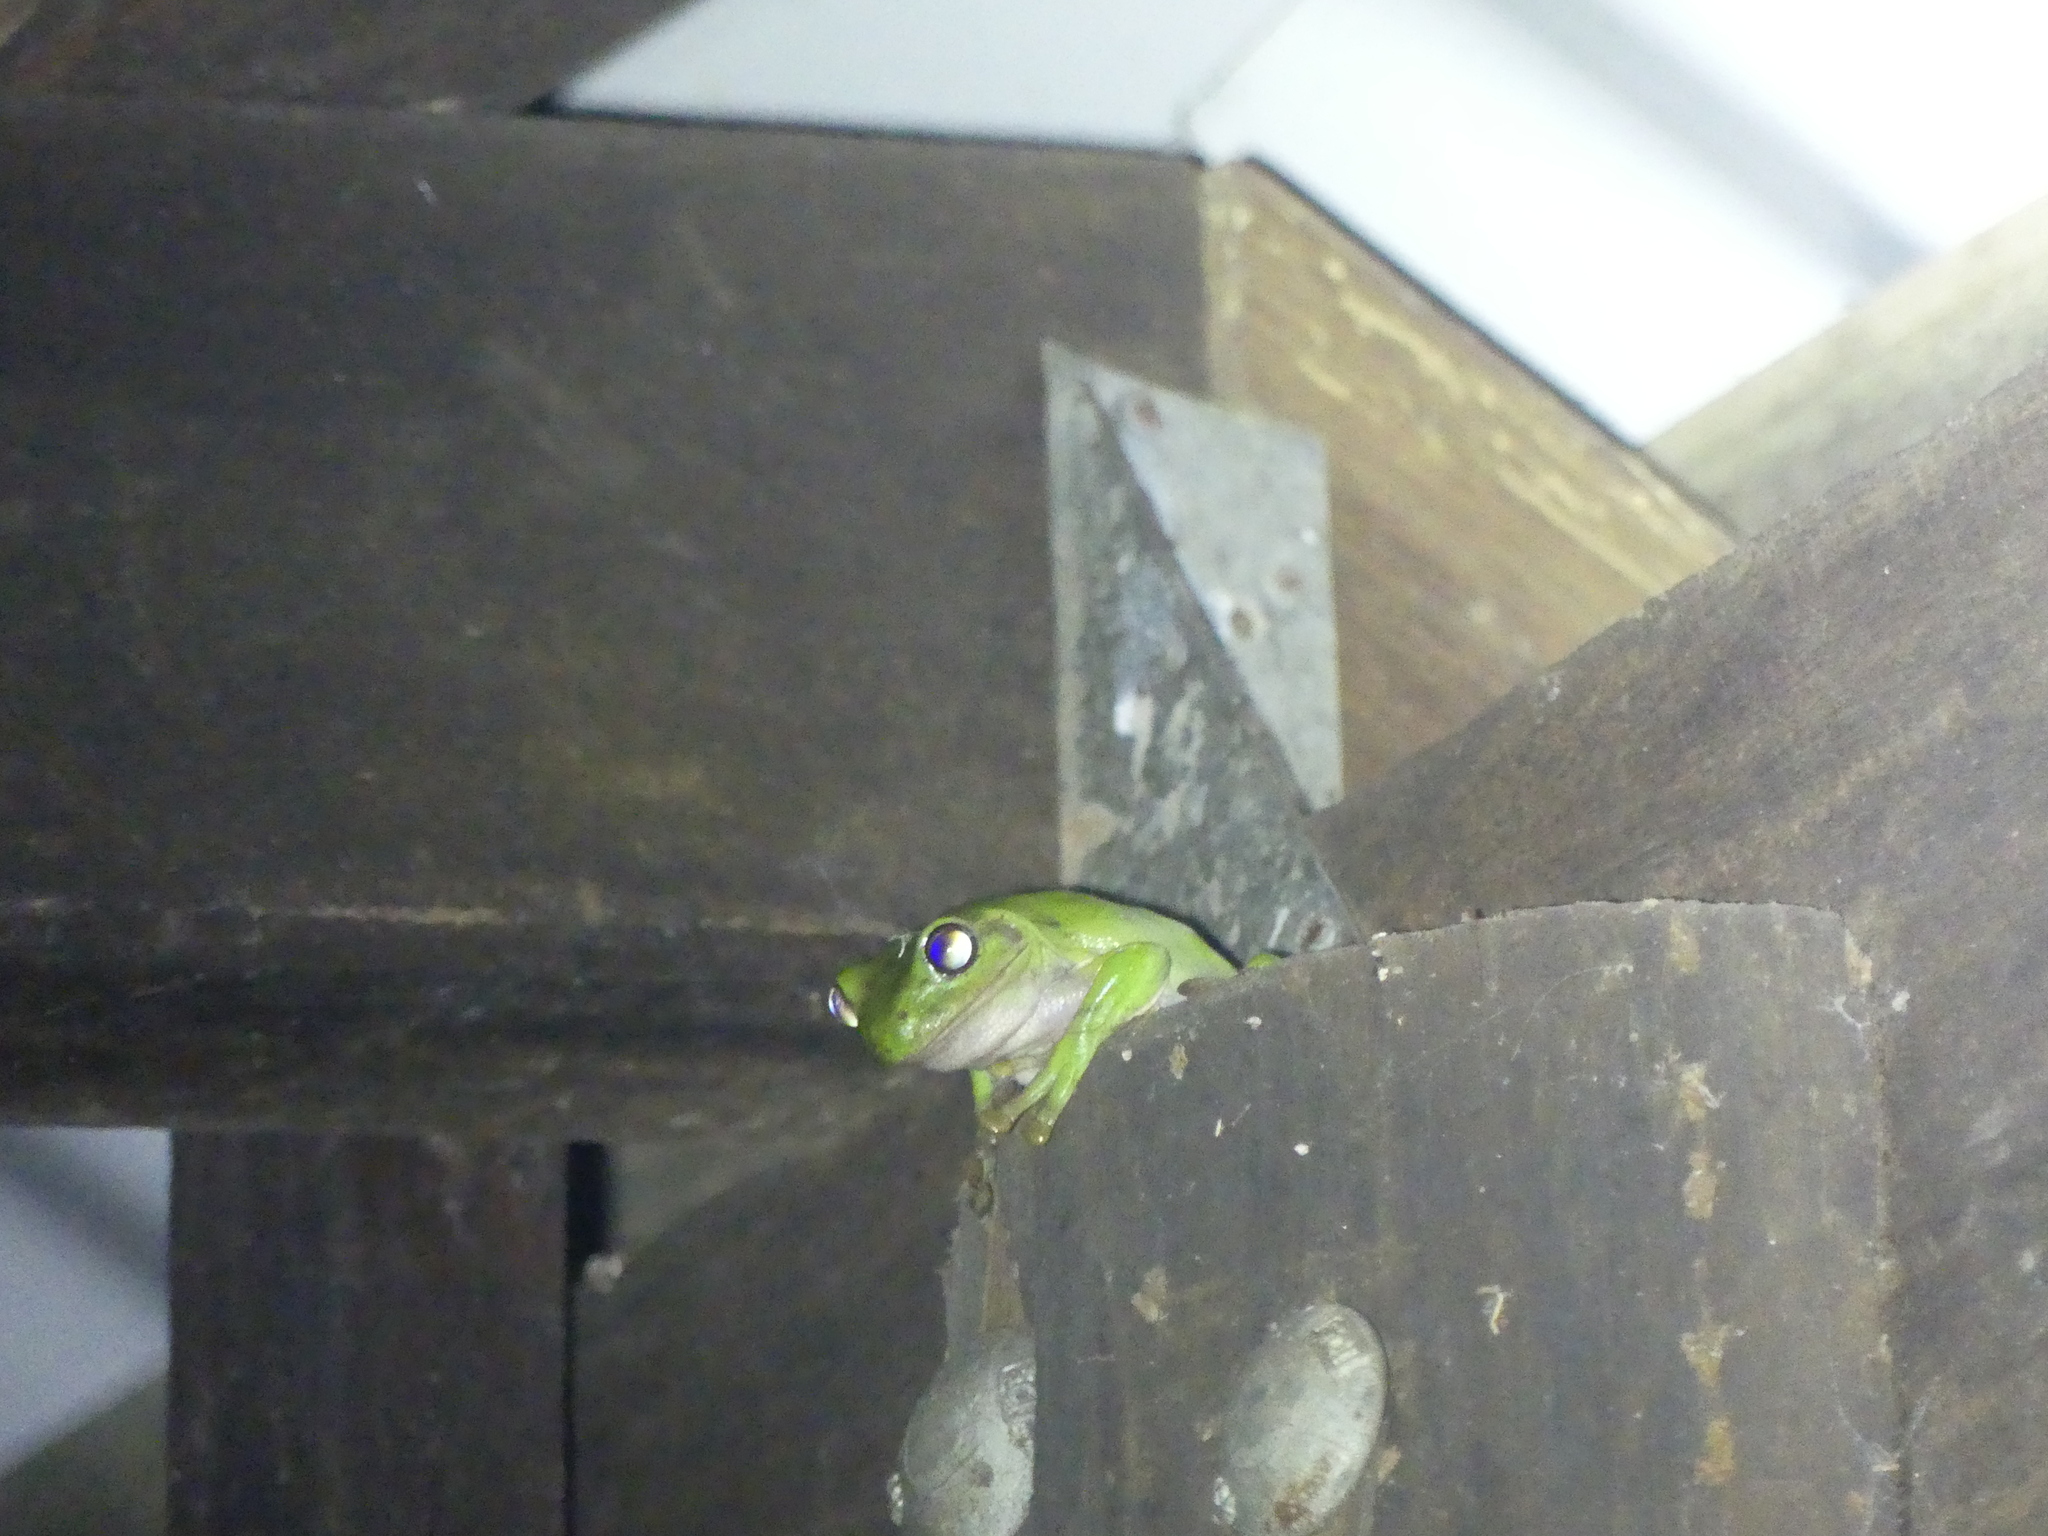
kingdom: Animalia
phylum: Chordata
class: Amphibia
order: Anura
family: Pelodryadidae
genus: Ranoidea
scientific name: Ranoidea caerulea
